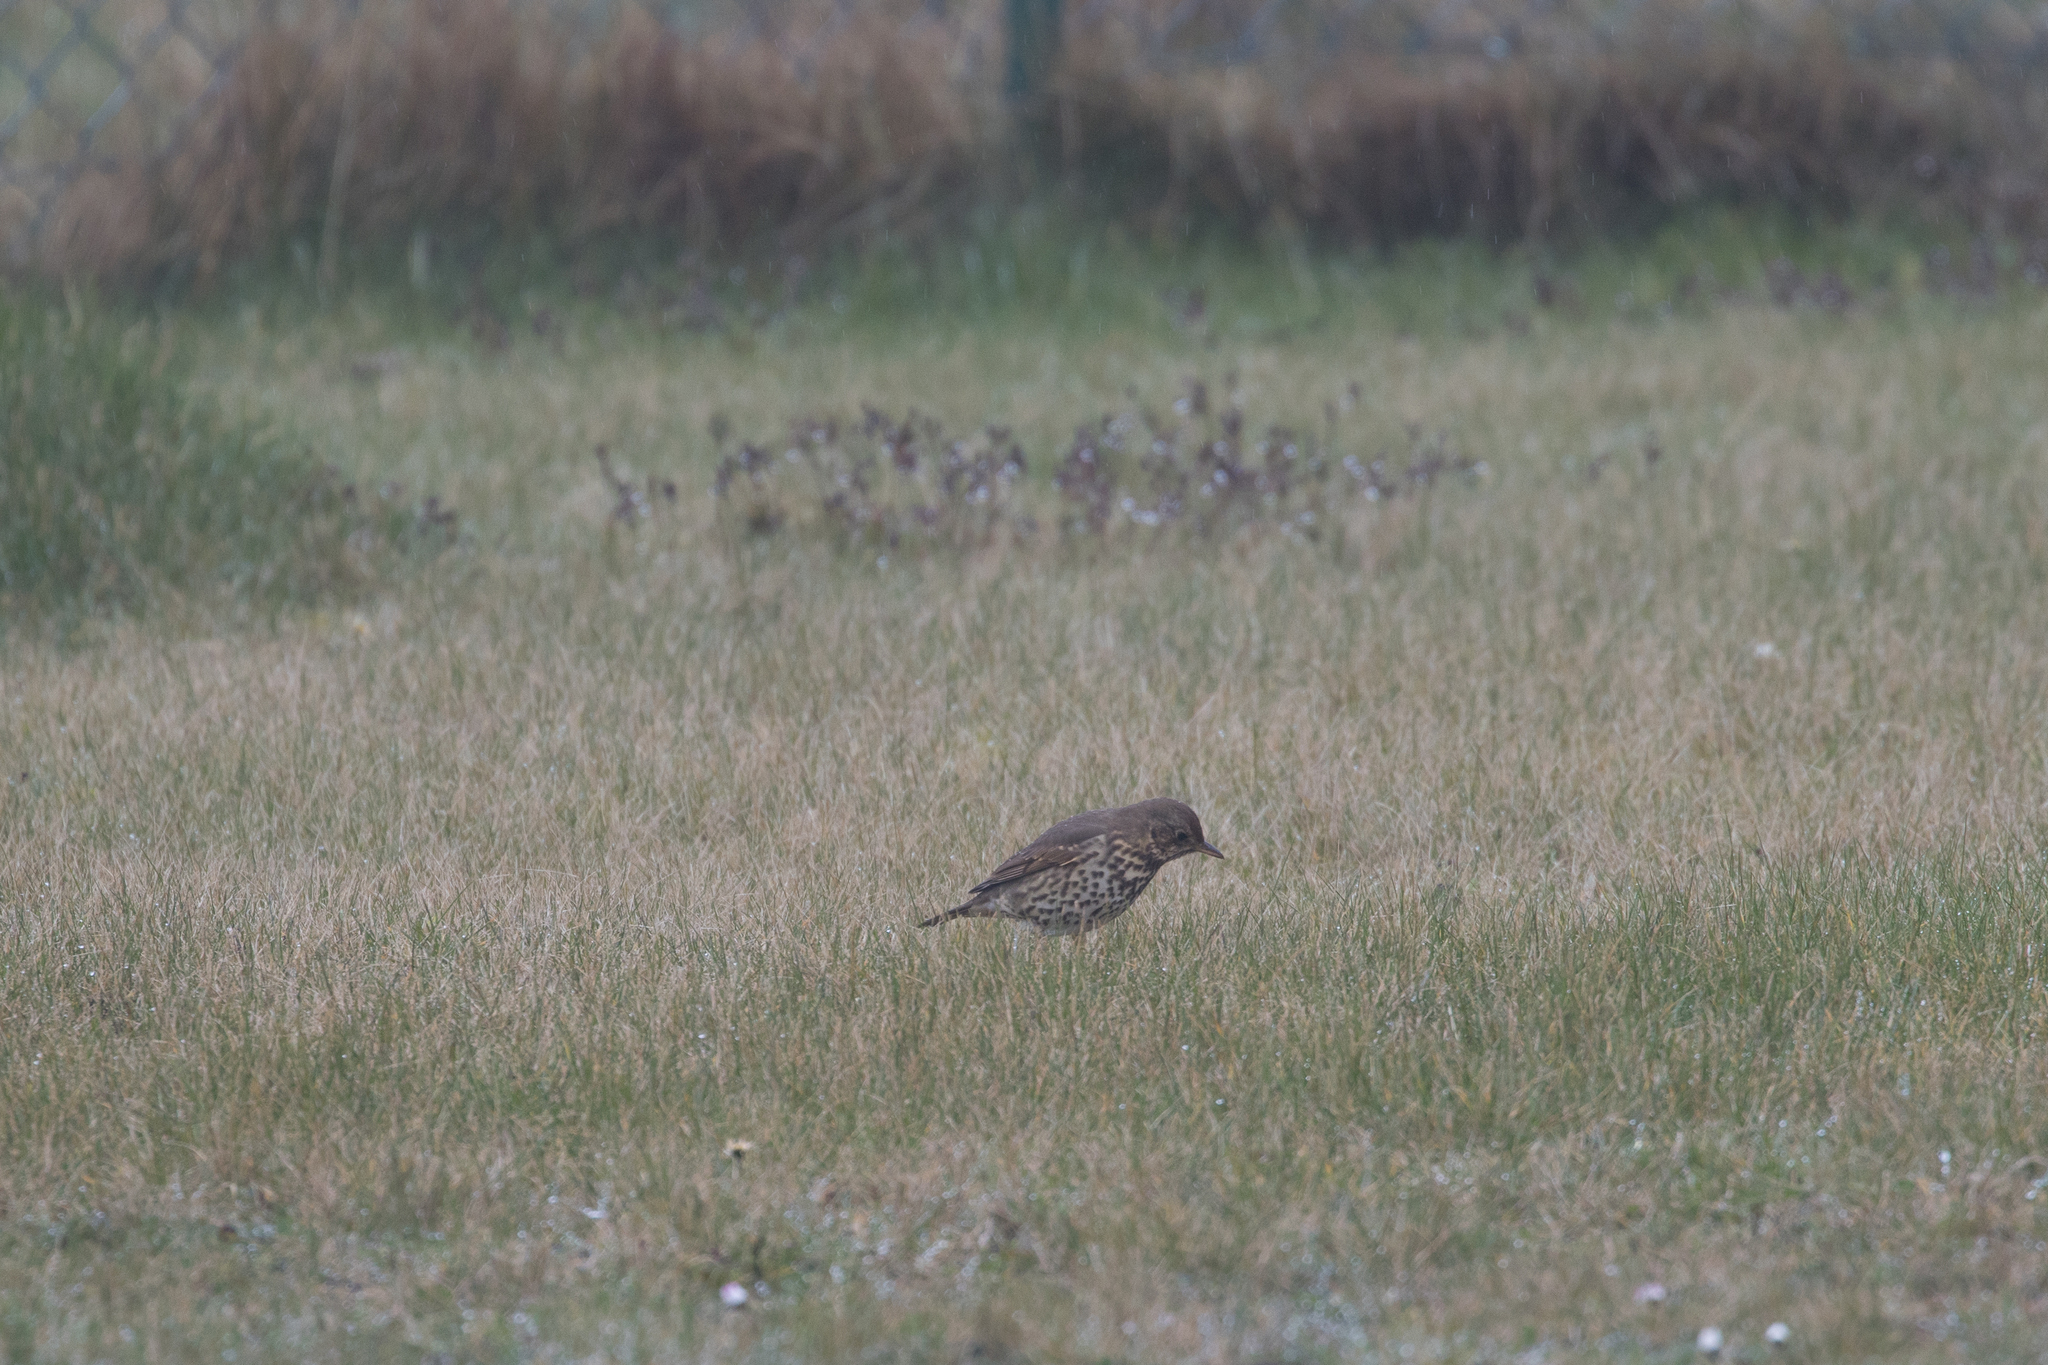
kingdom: Animalia
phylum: Chordata
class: Aves
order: Passeriformes
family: Turdidae
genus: Turdus
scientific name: Turdus philomelos
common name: Song thrush
